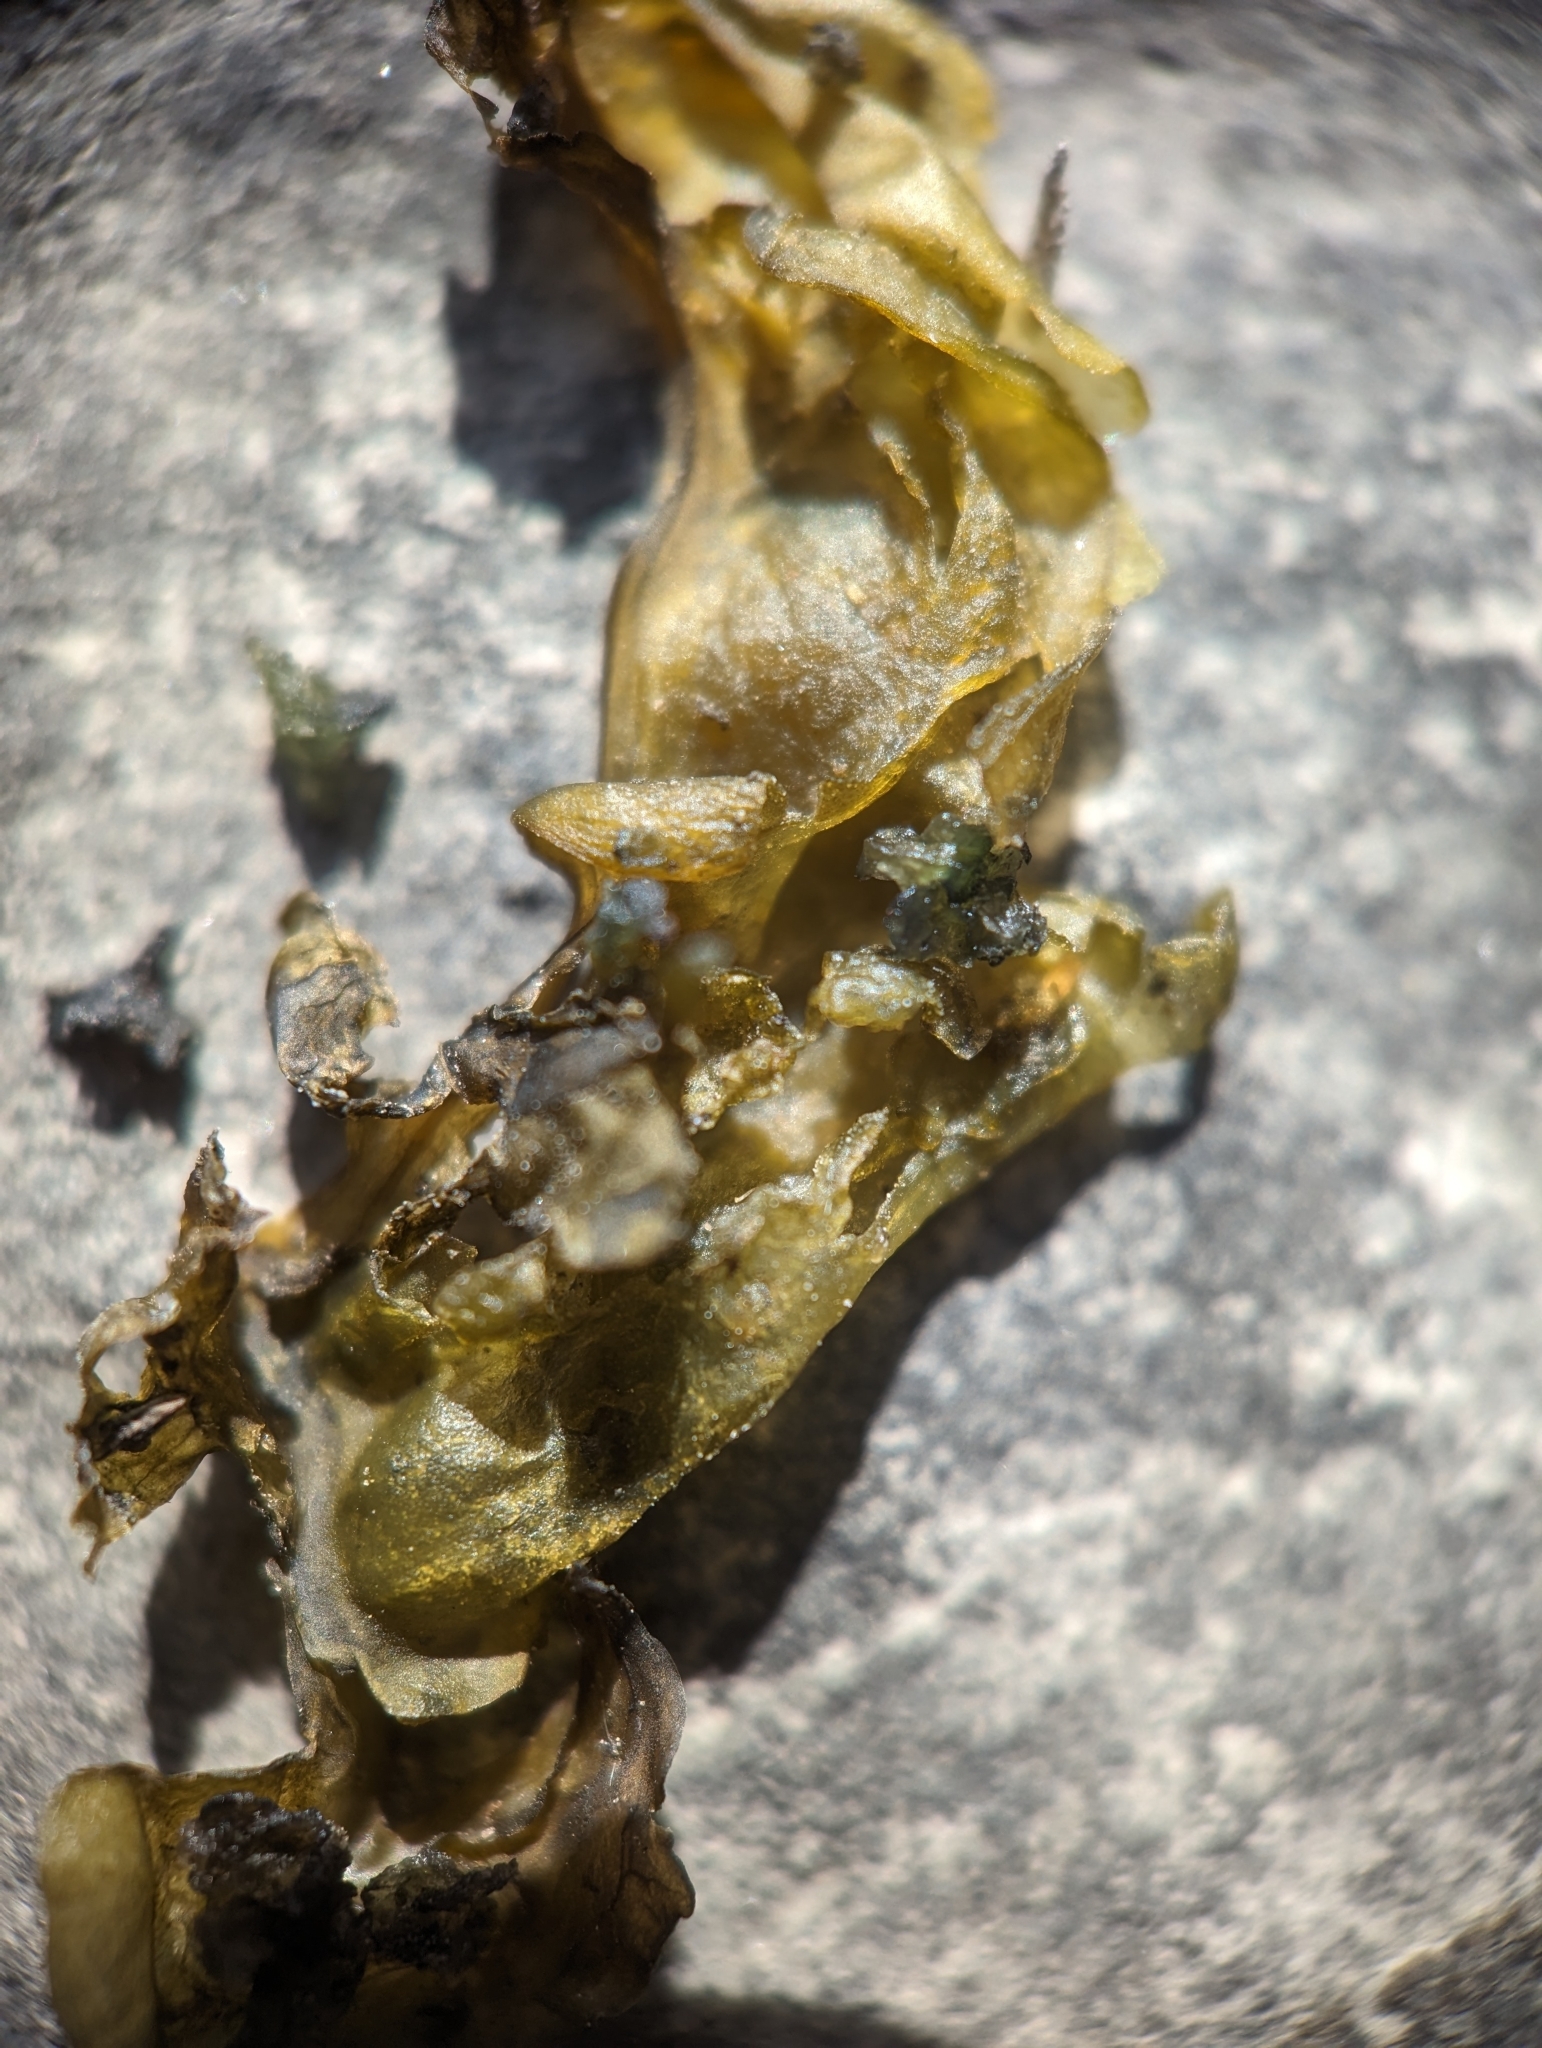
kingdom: Bacteria
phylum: Cyanobacteria
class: Cyanobacteriia
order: Cyanobacteriales
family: Nostocaceae
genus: Nostoc
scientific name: Nostoc commune
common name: Star jelly
